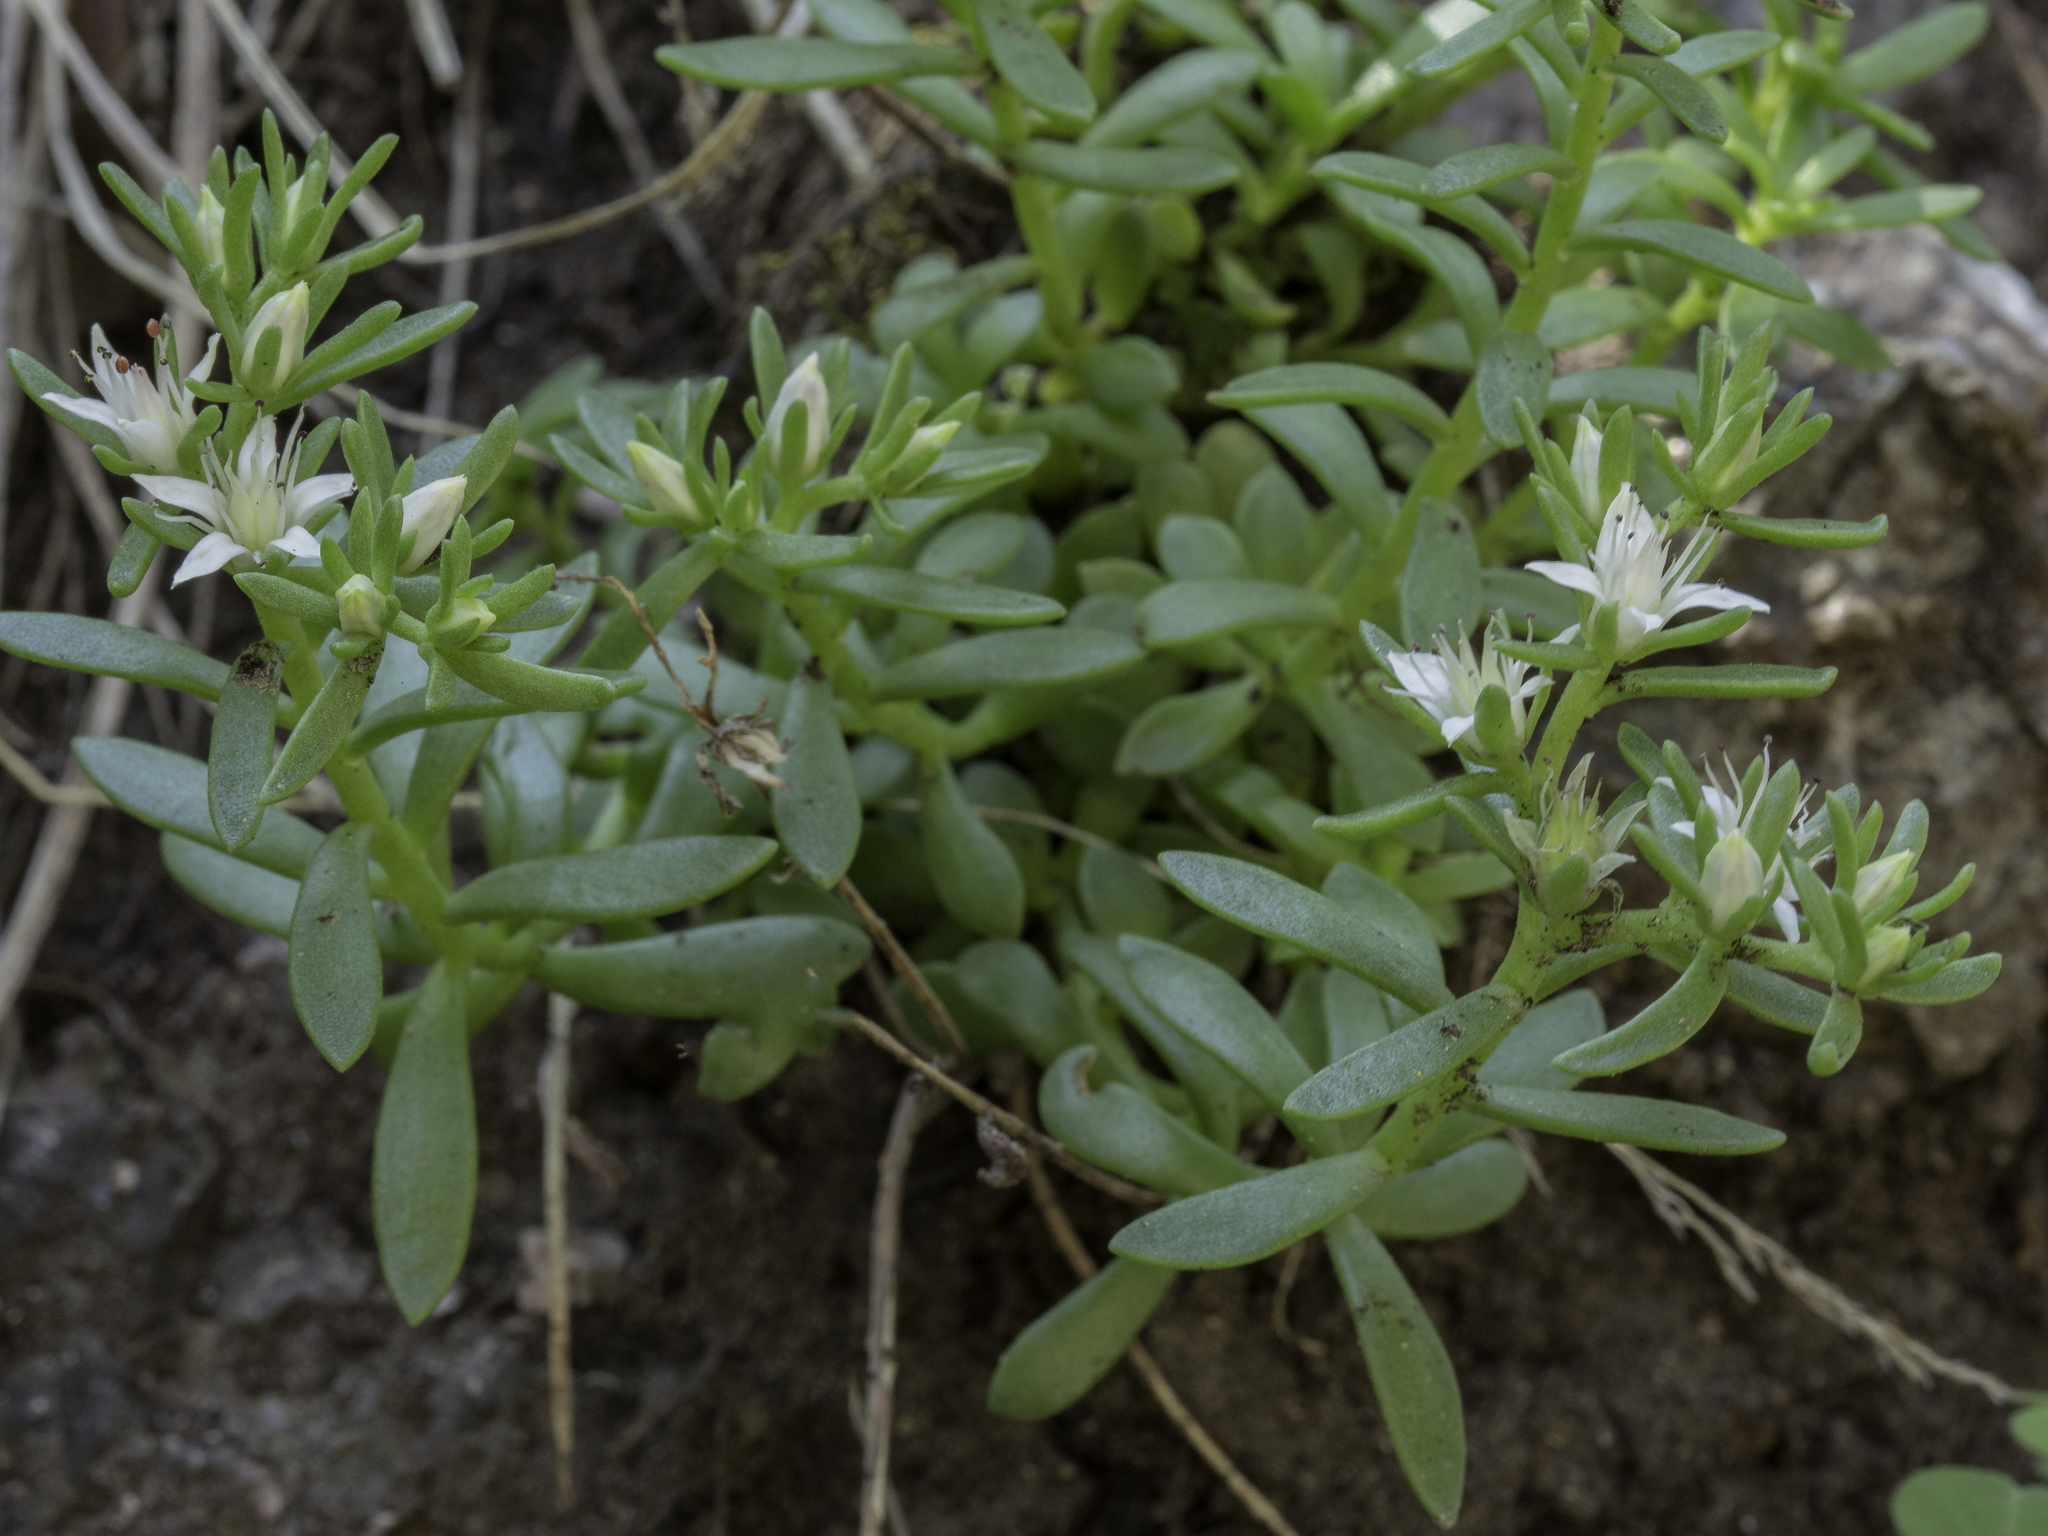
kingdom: Plantae
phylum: Tracheophyta
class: Magnoliopsida
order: Saxifragales
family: Crassulaceae
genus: Sedum
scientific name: Sedum cockerellii
